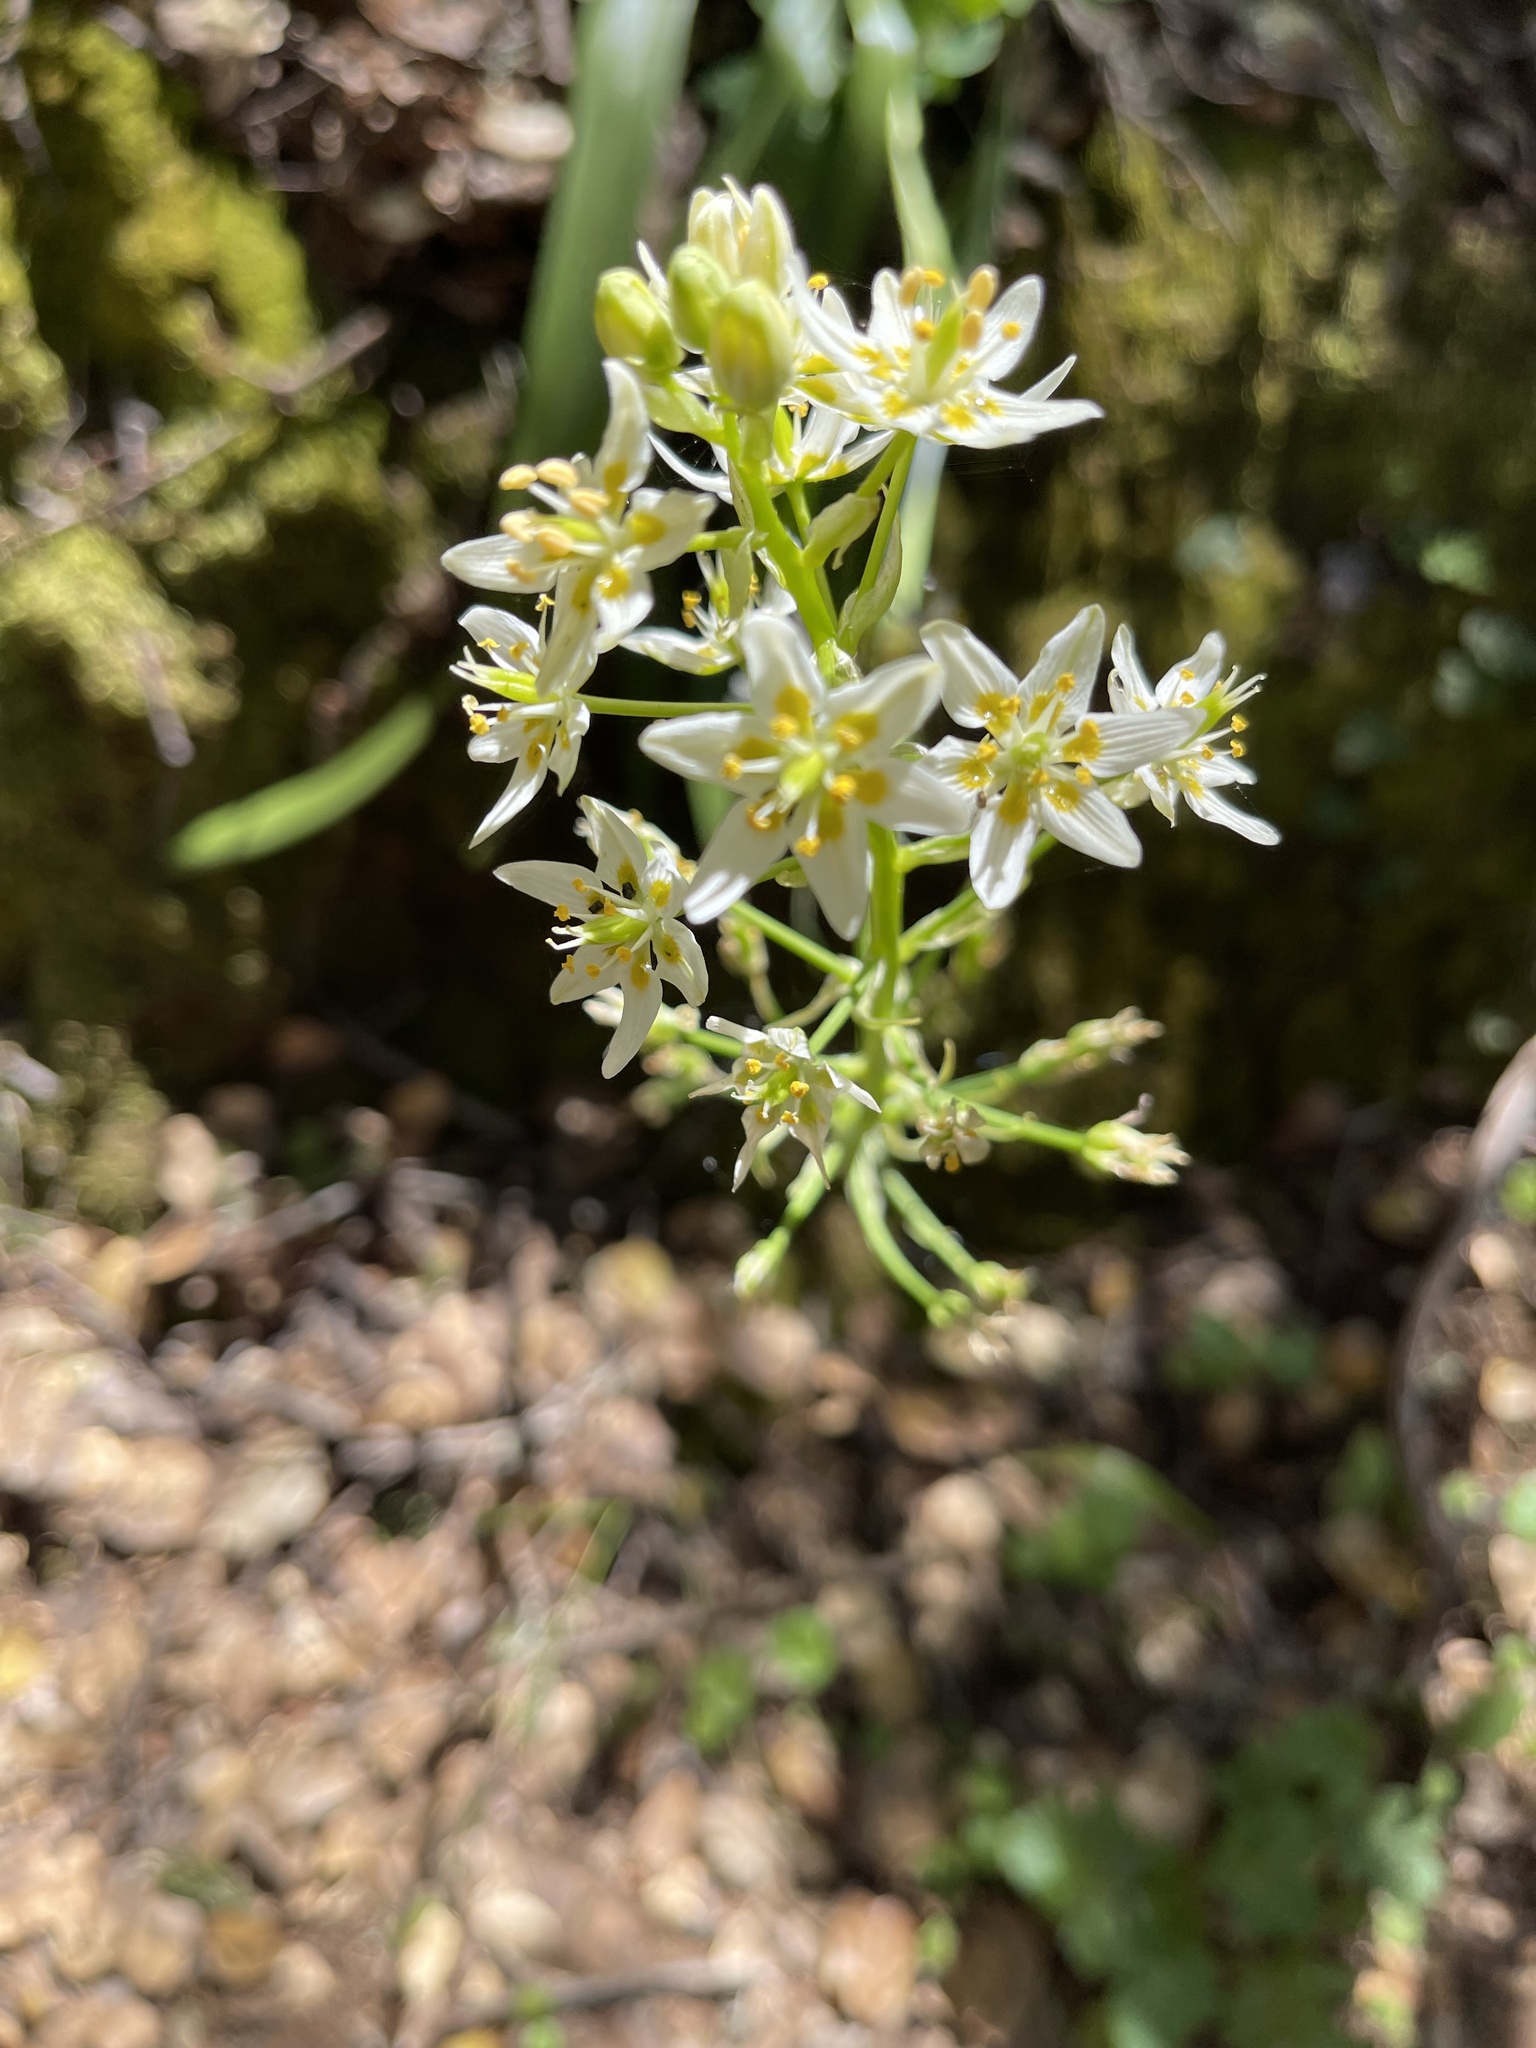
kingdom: Plantae
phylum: Tracheophyta
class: Liliopsida
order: Liliales
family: Melanthiaceae
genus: Toxicoscordion
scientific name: Toxicoscordion fremontii
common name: Fremont's death camas
